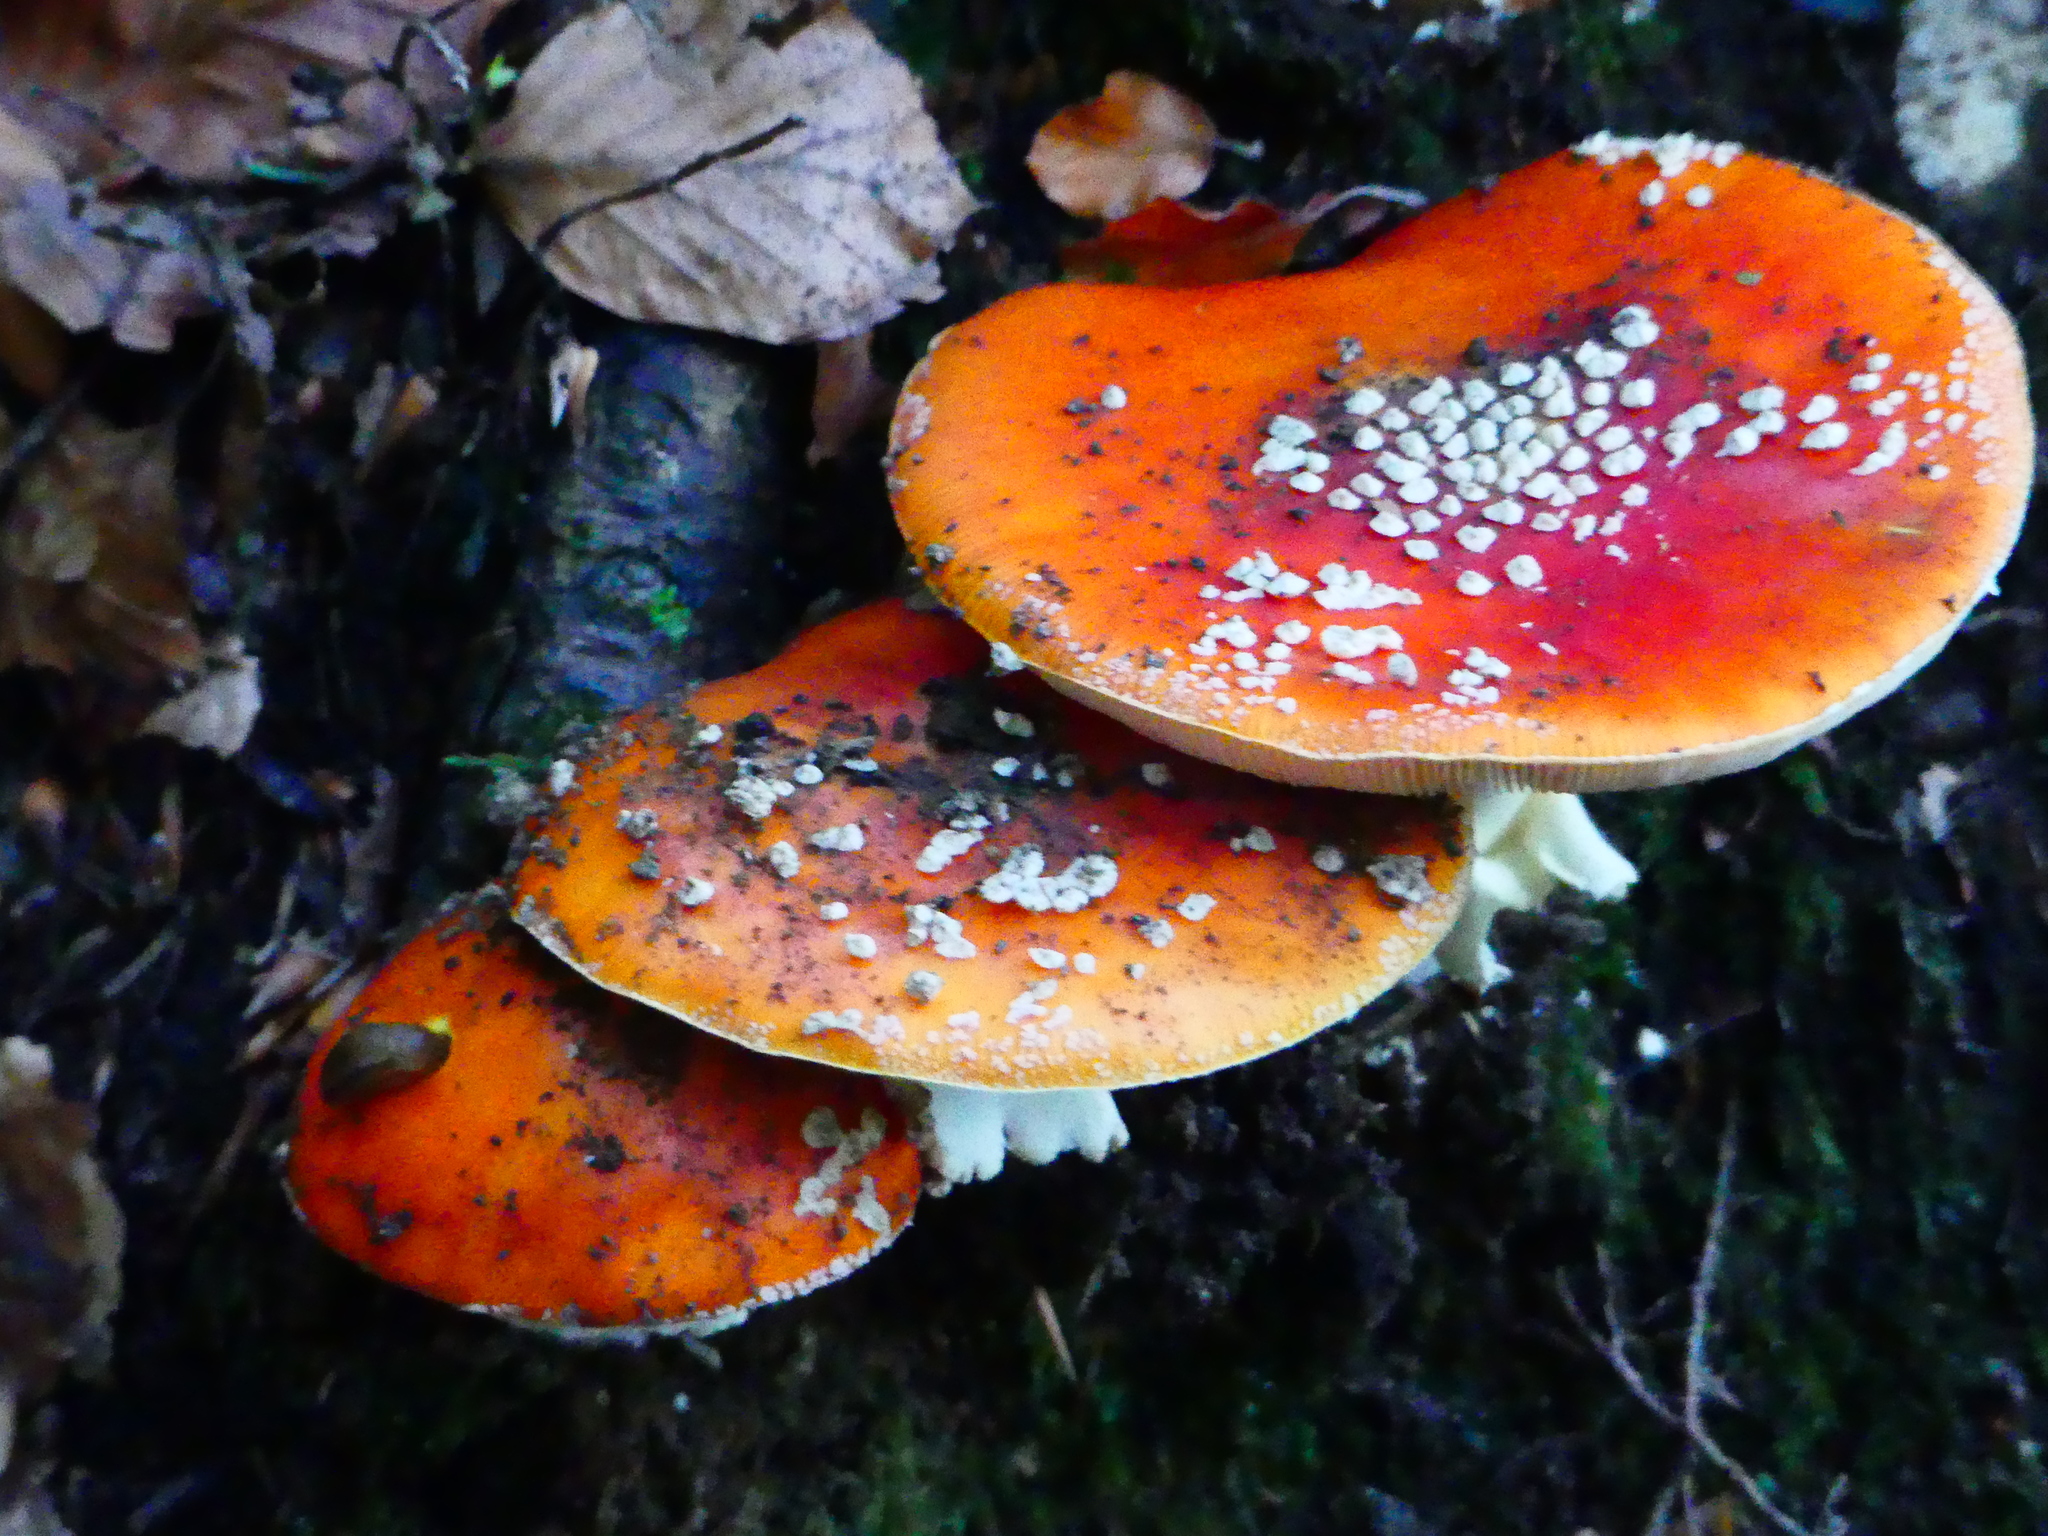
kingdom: Fungi
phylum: Basidiomycota
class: Agaricomycetes
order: Agaricales
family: Amanitaceae
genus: Amanita
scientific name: Amanita muscaria
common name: Fly agaric
